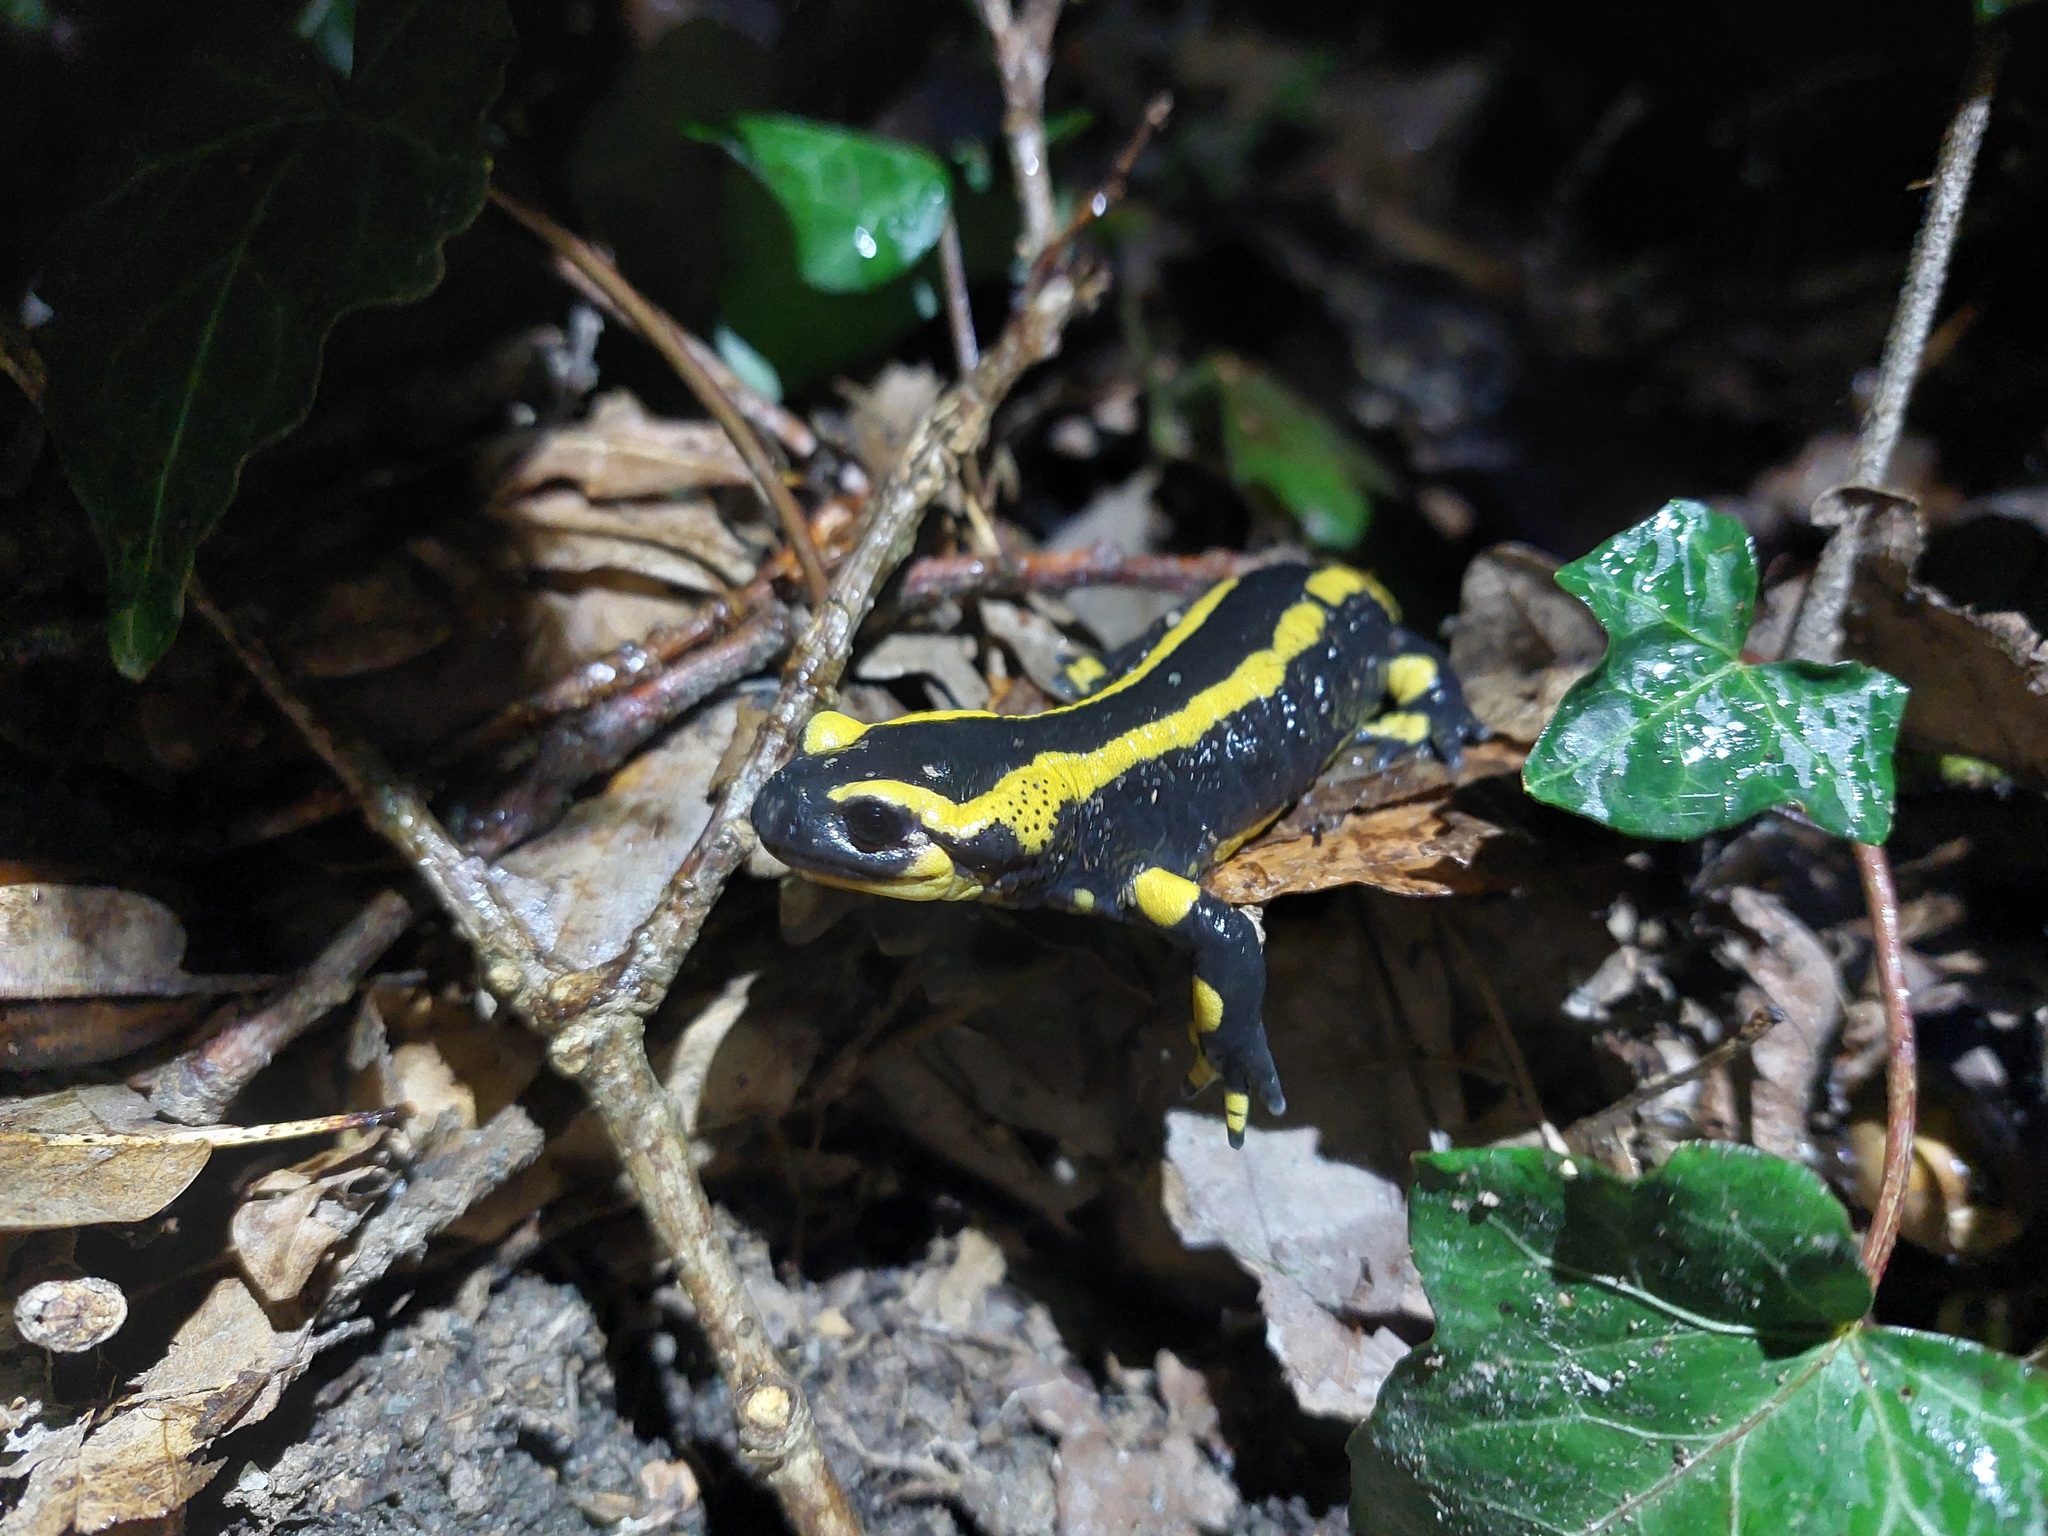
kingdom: Animalia
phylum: Chordata
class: Amphibia
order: Caudata
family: Salamandridae
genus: Salamandra
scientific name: Salamandra salamandra
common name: Fire salamander
